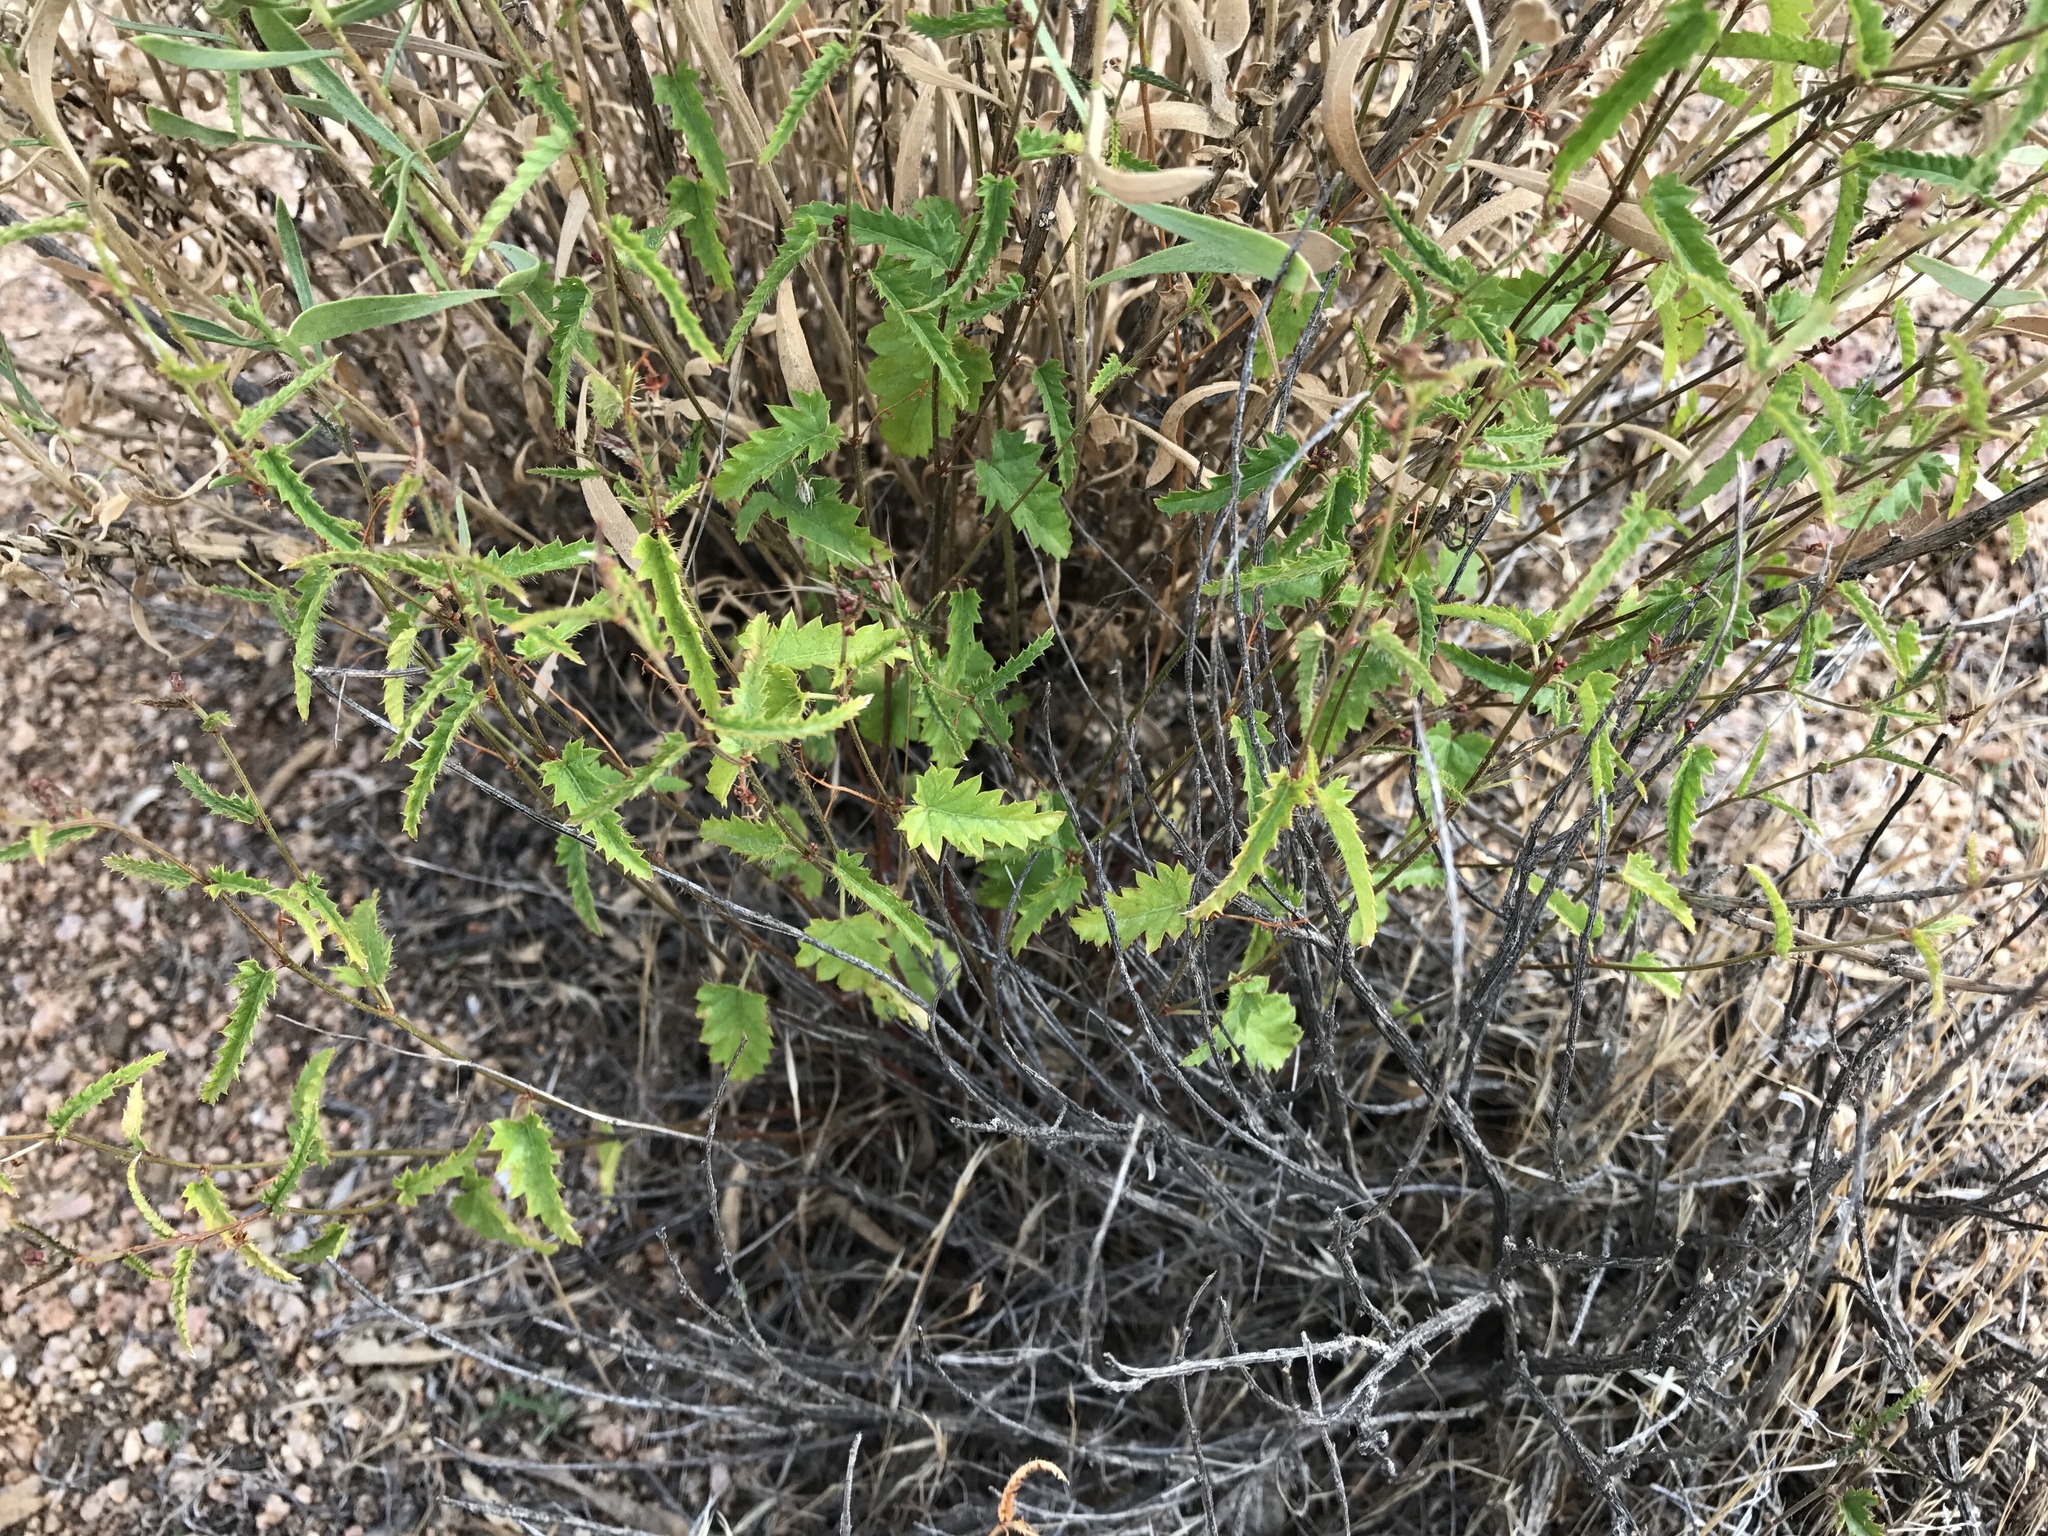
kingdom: Plantae
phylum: Tracheophyta
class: Magnoliopsida
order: Malpighiales
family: Euphorbiaceae
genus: Tragia
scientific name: Tragia ramosa
